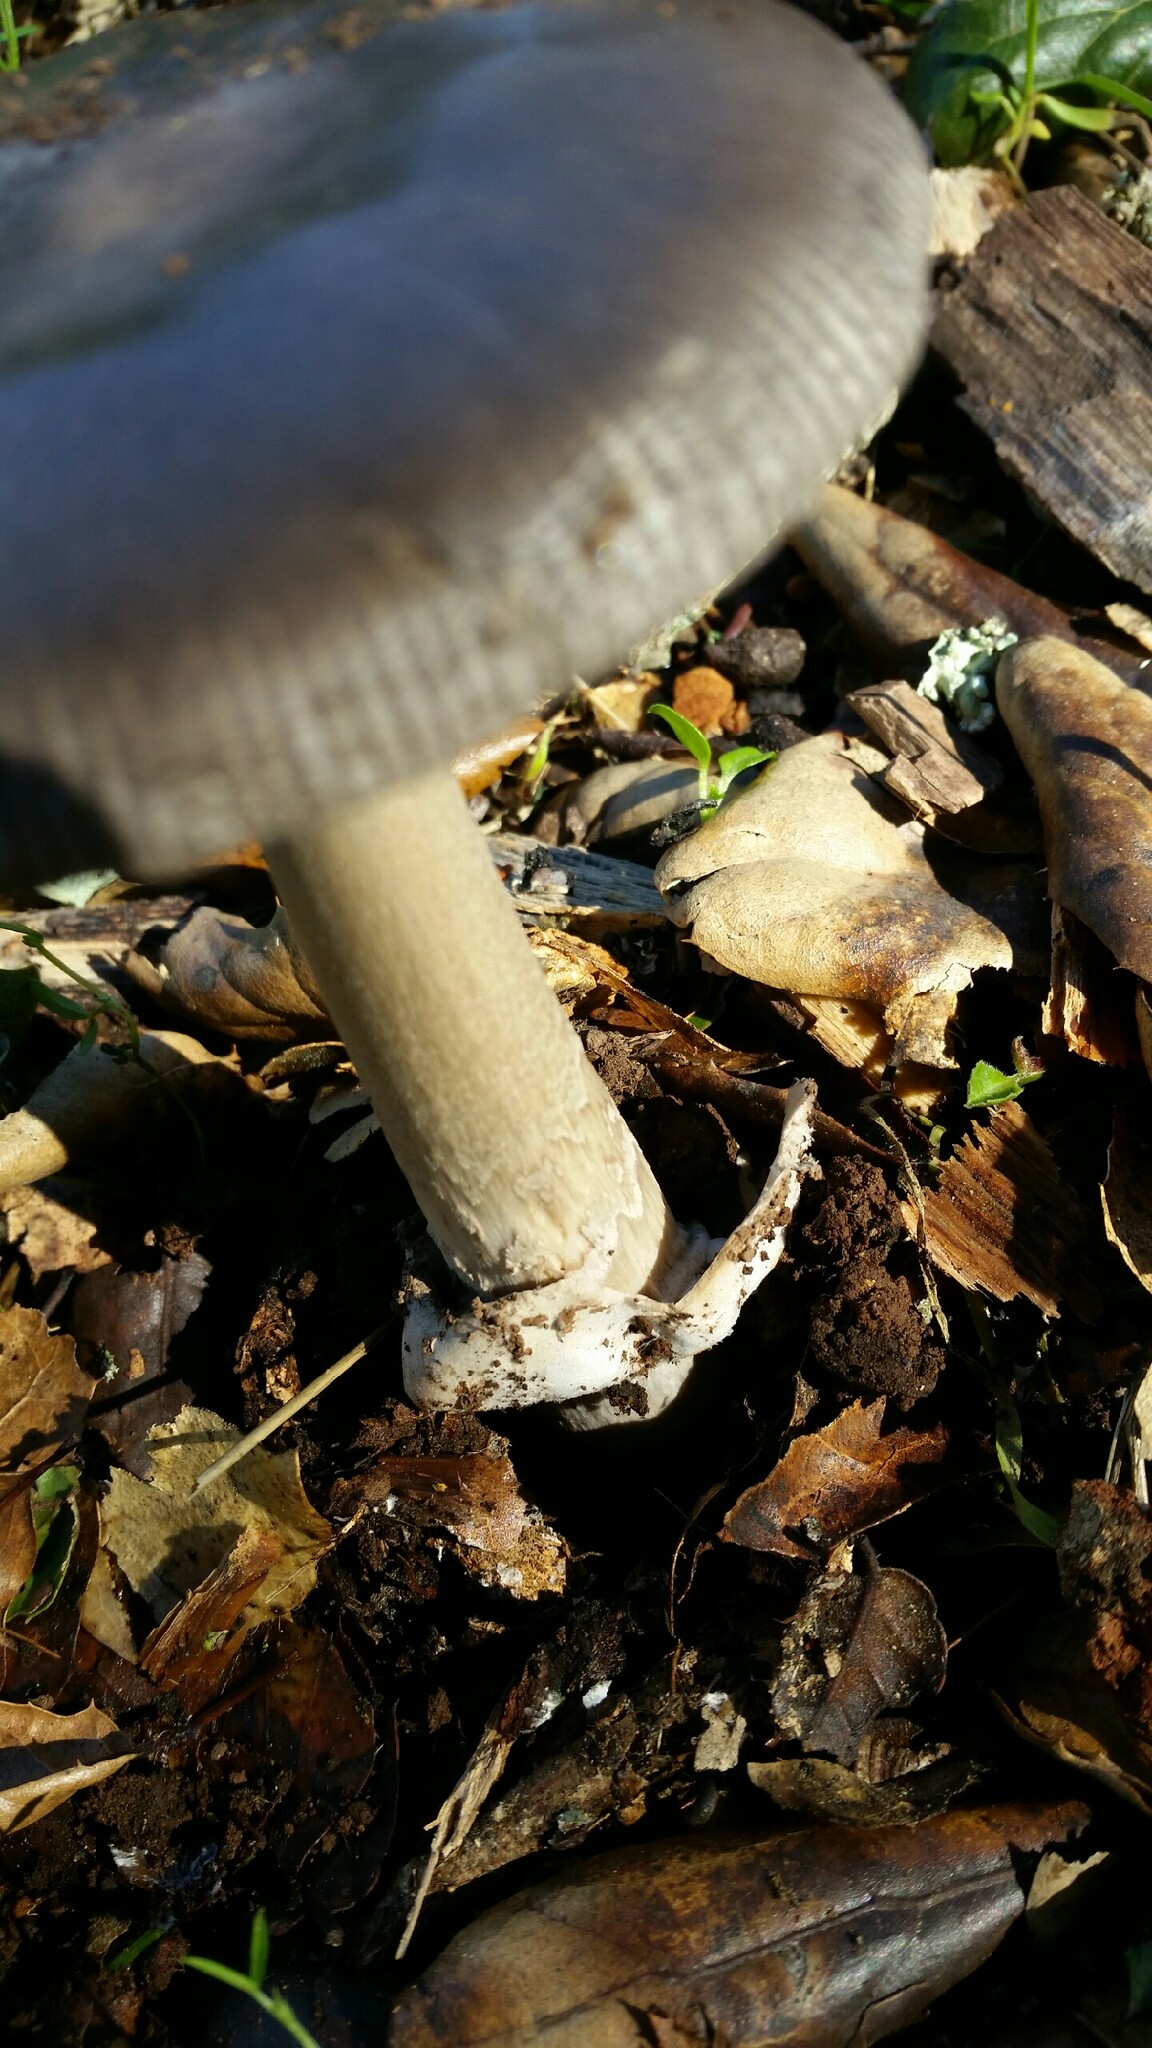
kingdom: Fungi
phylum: Basidiomycota
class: Agaricomycetes
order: Agaricales
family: Amanitaceae
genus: Amanita
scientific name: Amanita constricta
